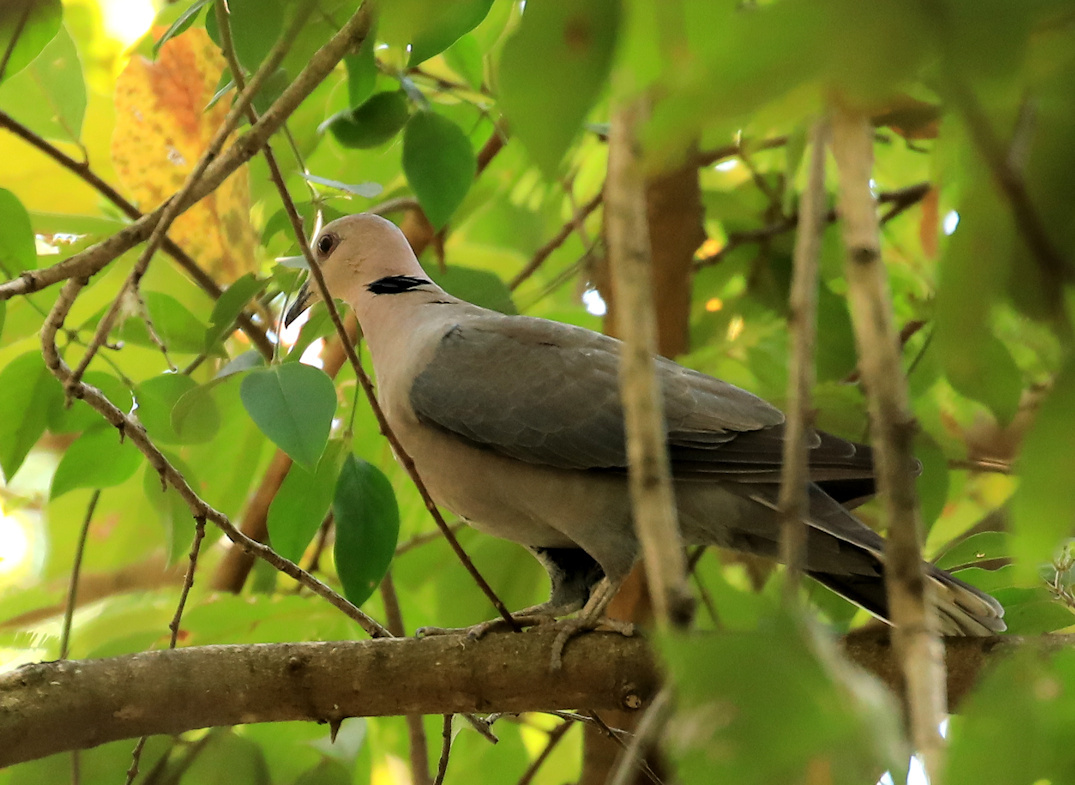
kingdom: Animalia
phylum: Chordata
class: Aves
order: Columbiformes
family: Columbidae
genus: Streptopelia
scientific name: Streptopelia semitorquata
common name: Red-eyed dove
